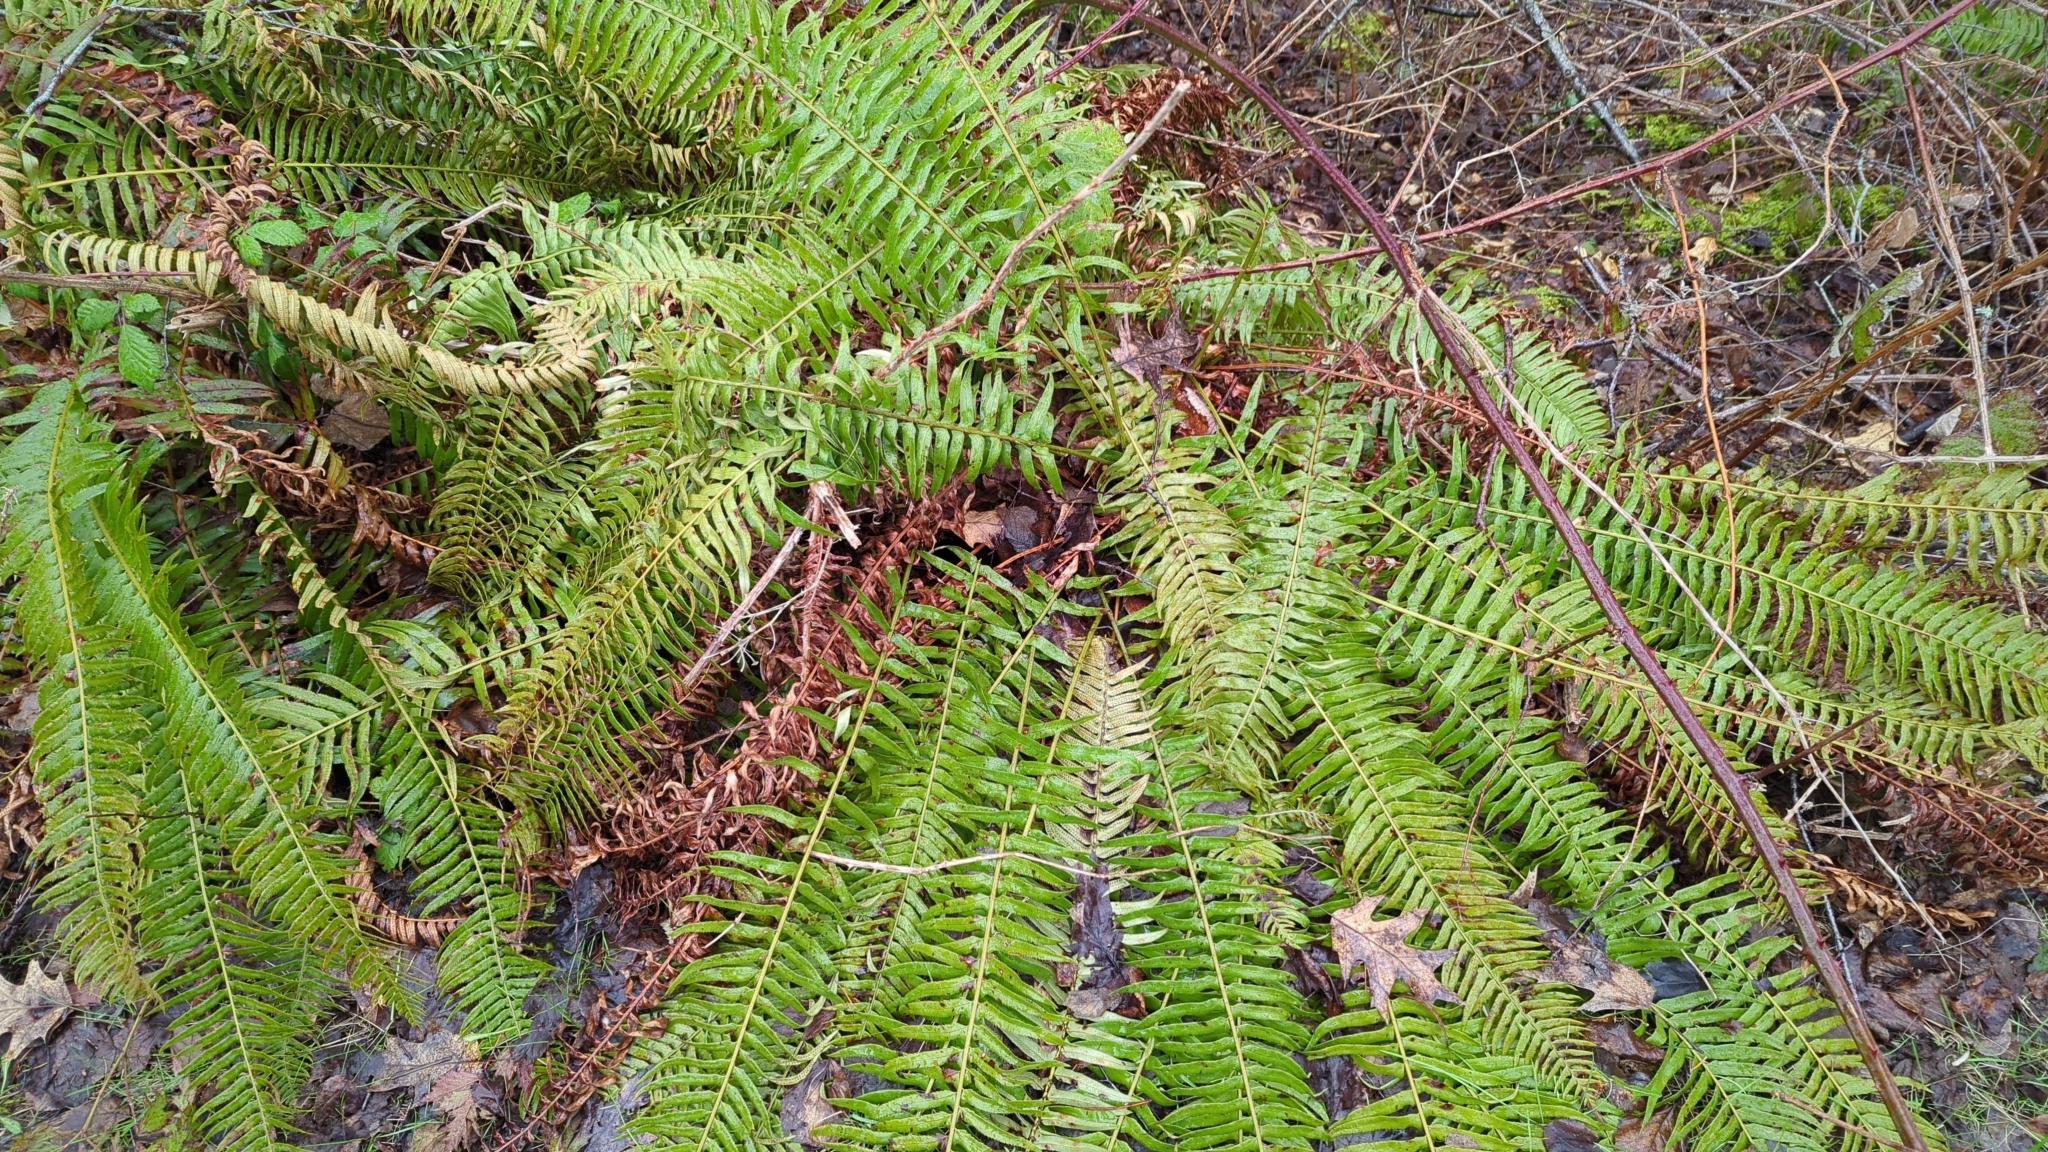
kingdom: Plantae
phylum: Tracheophyta
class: Polypodiopsida
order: Polypodiales
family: Dryopteridaceae
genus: Polystichum
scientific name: Polystichum munitum
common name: Western sword-fern
